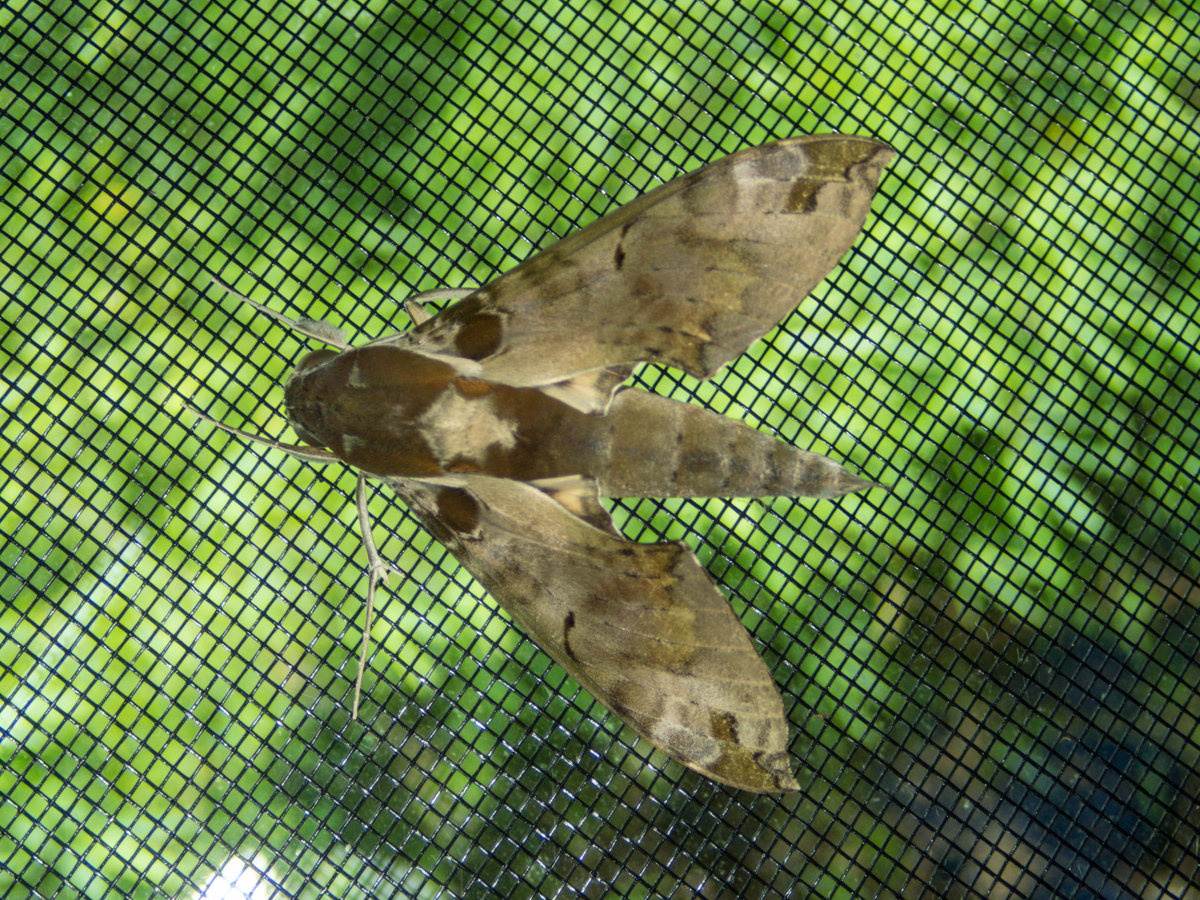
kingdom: Animalia
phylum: Arthropoda
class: Insecta
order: Lepidoptera
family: Sphingidae
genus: Cechenena
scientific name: Cechenena helops
